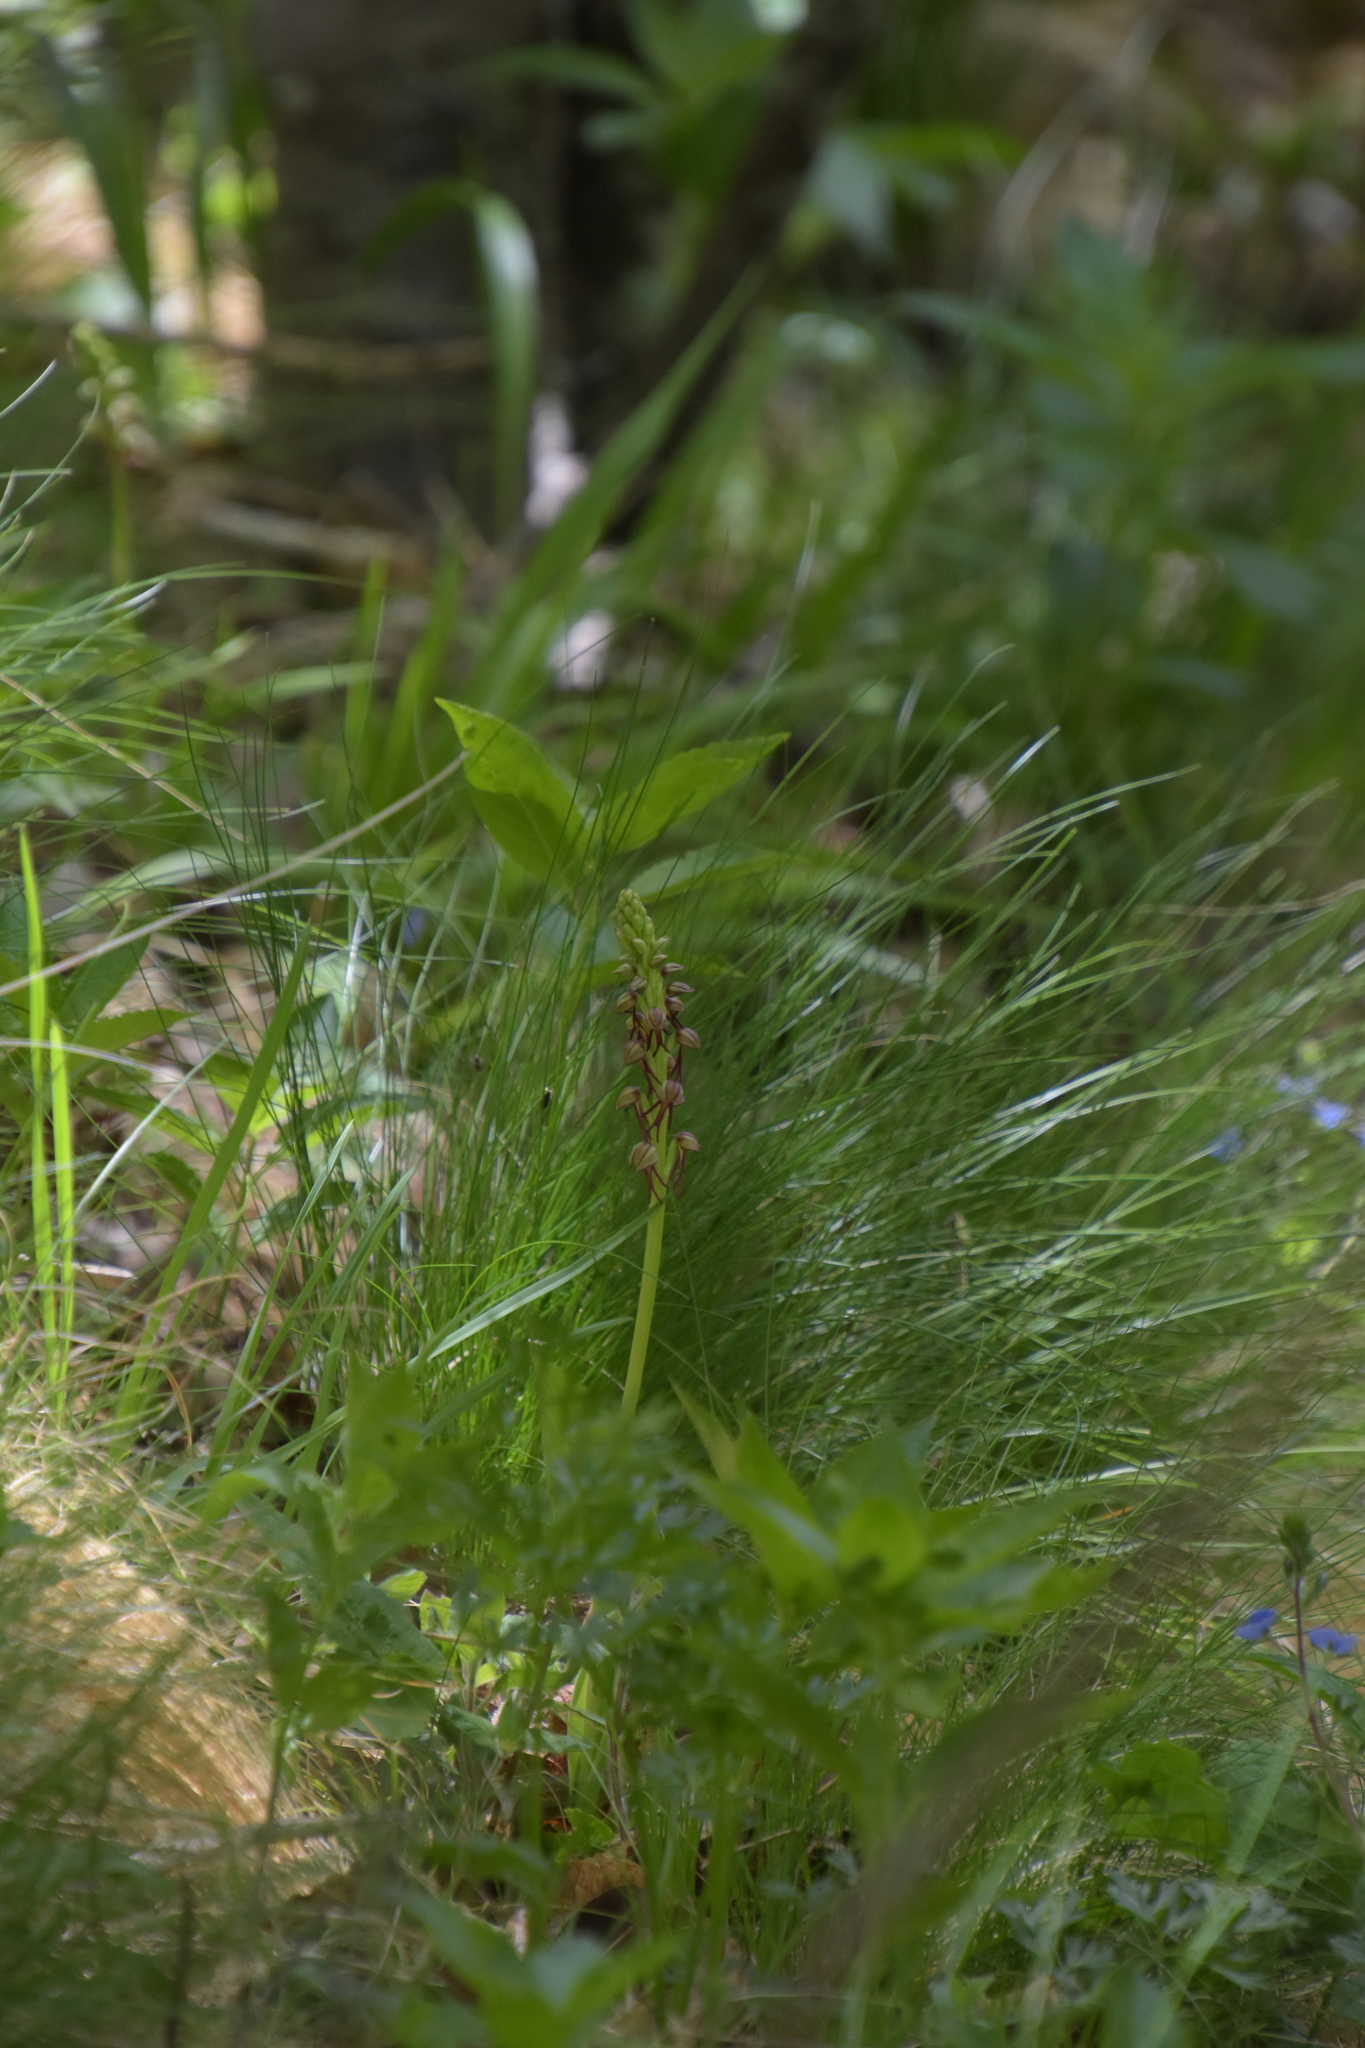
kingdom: Plantae
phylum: Tracheophyta
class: Liliopsida
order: Asparagales
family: Orchidaceae
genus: Orchis
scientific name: Orchis anthropophora
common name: Man orchid
